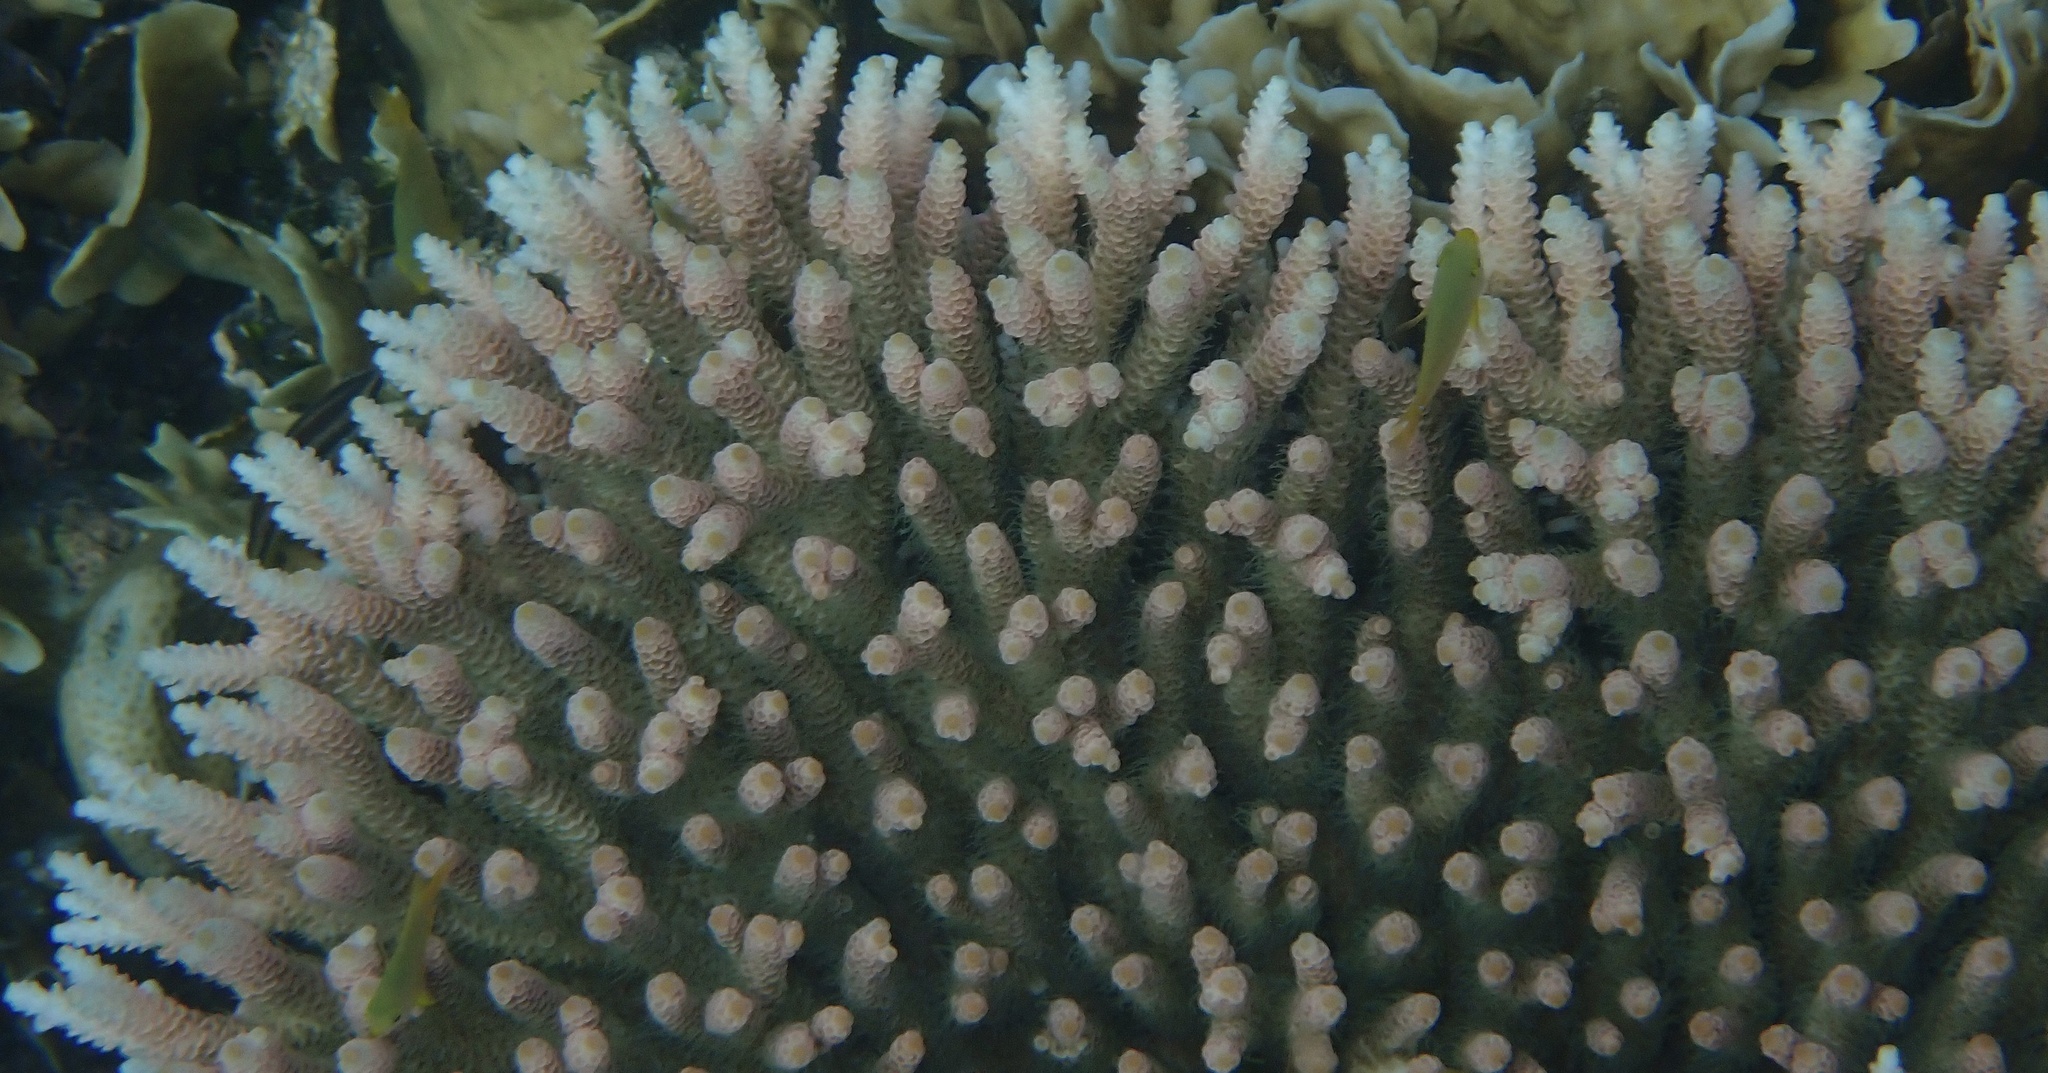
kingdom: Animalia
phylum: Cnidaria
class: Anthozoa
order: Scleractinia
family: Acroporidae
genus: Acropora
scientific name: Acropora millepora
